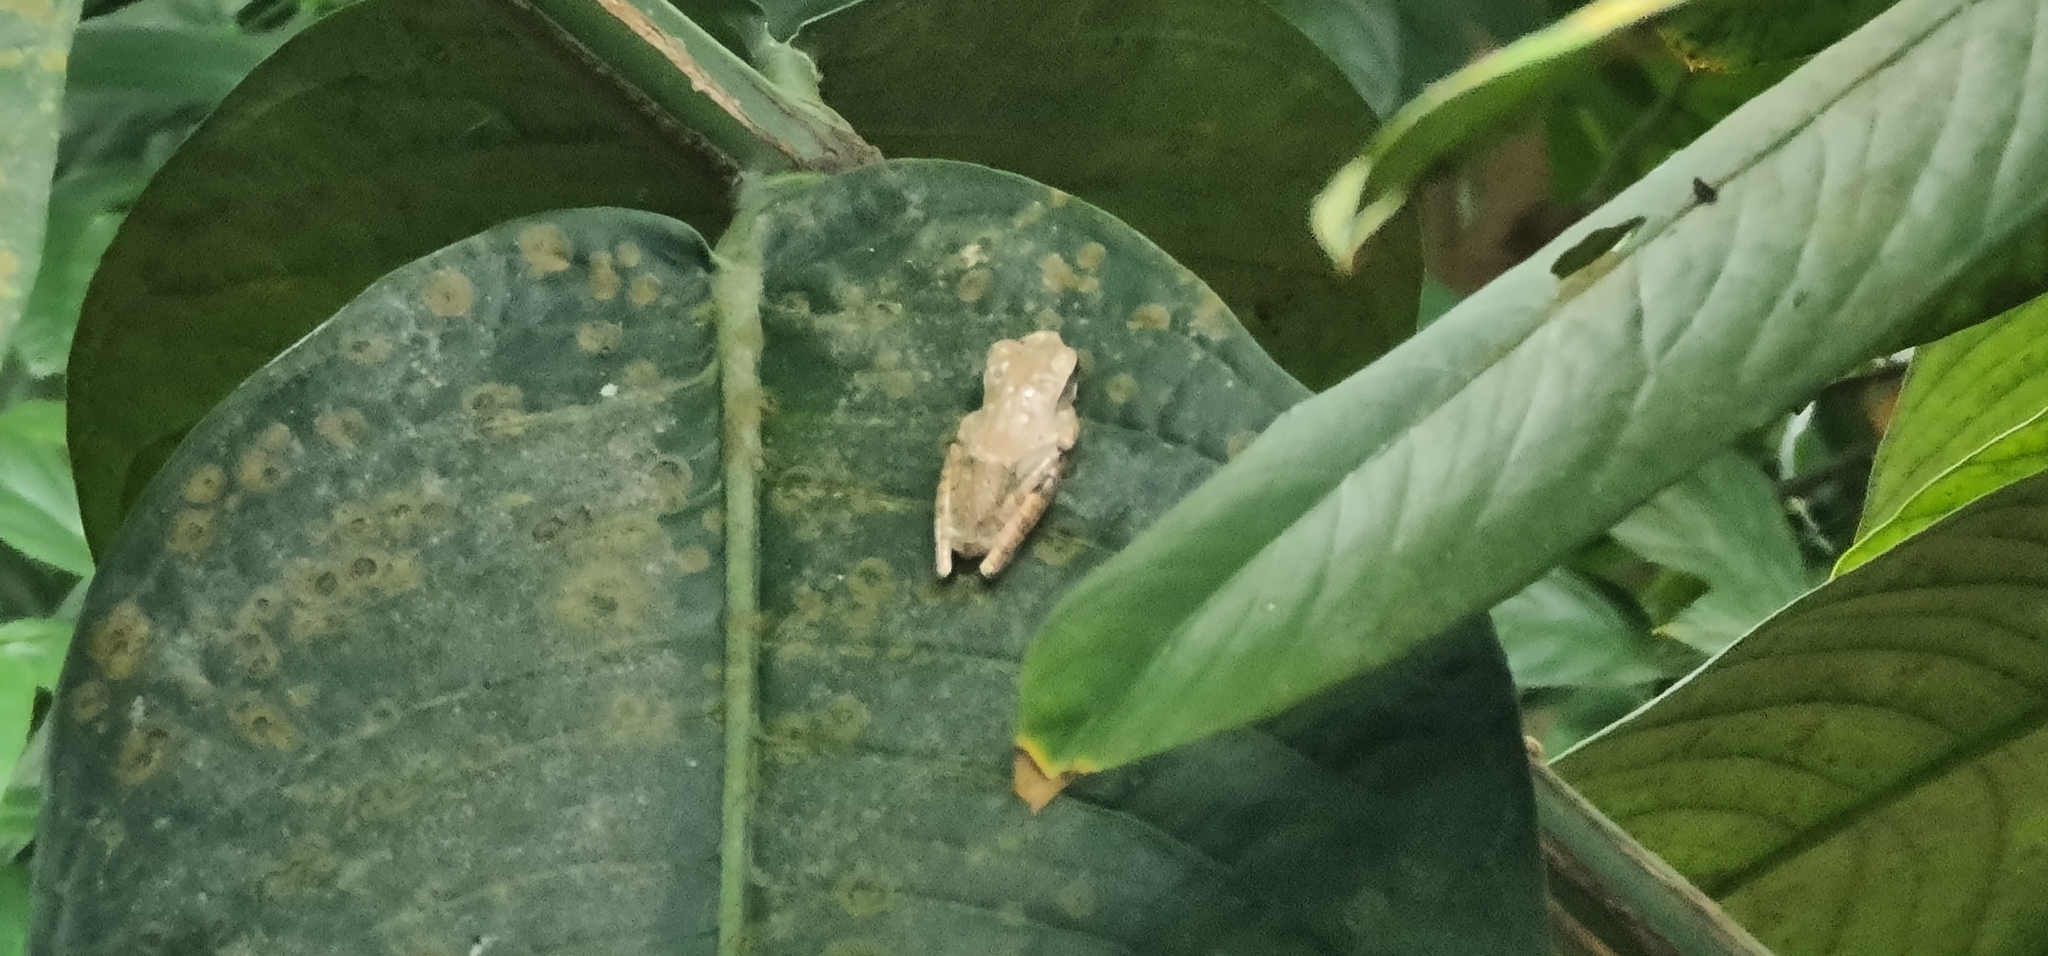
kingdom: Animalia
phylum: Chordata
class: Amphibia
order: Anura
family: Rhacophoridae
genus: Polypedates
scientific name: Polypedates leucomystax
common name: Common tree frog/four-lined tree frog
